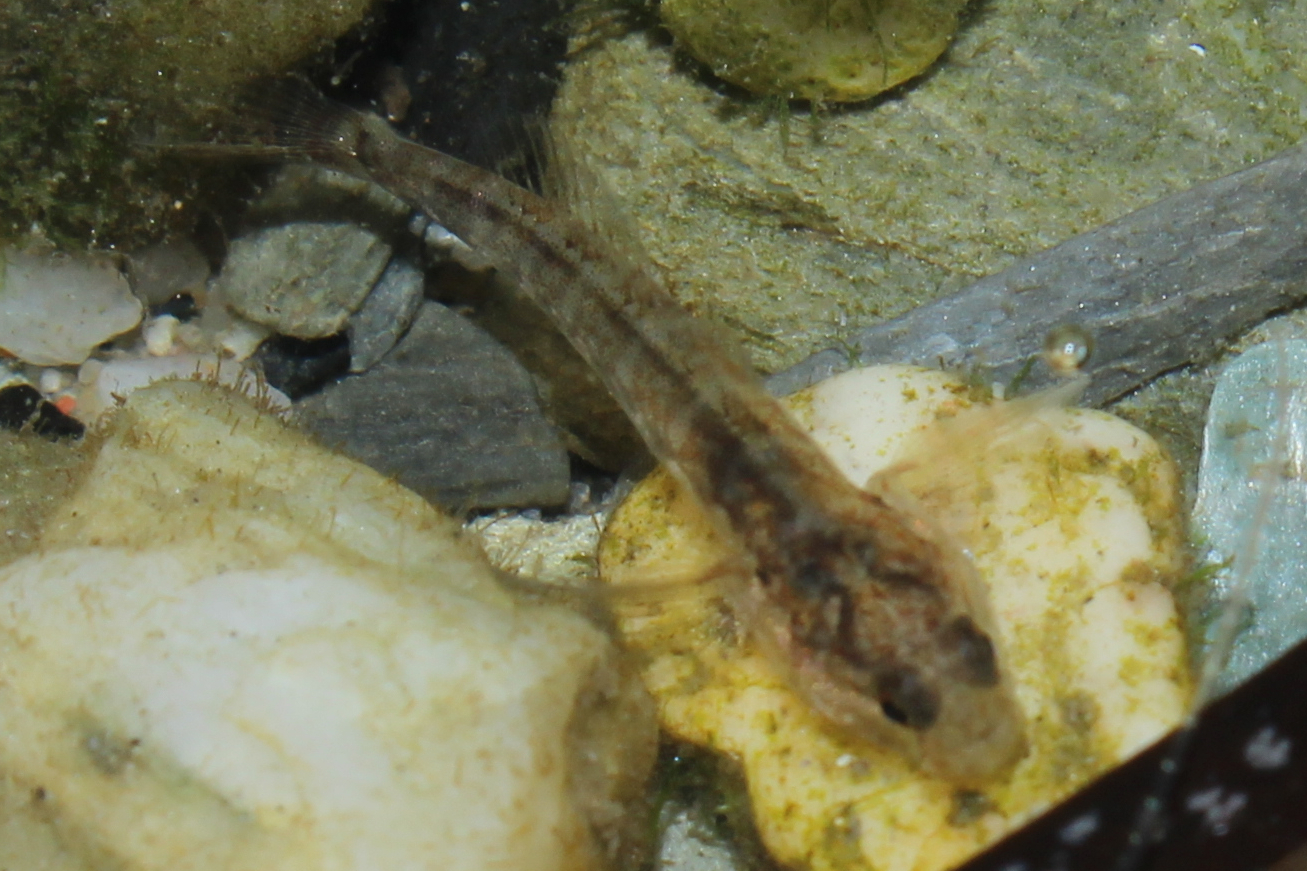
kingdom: Animalia
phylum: Chordata
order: Perciformes
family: Gobiidae
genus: Gobiosoma
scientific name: Gobiosoma bosc
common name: Naked goby
